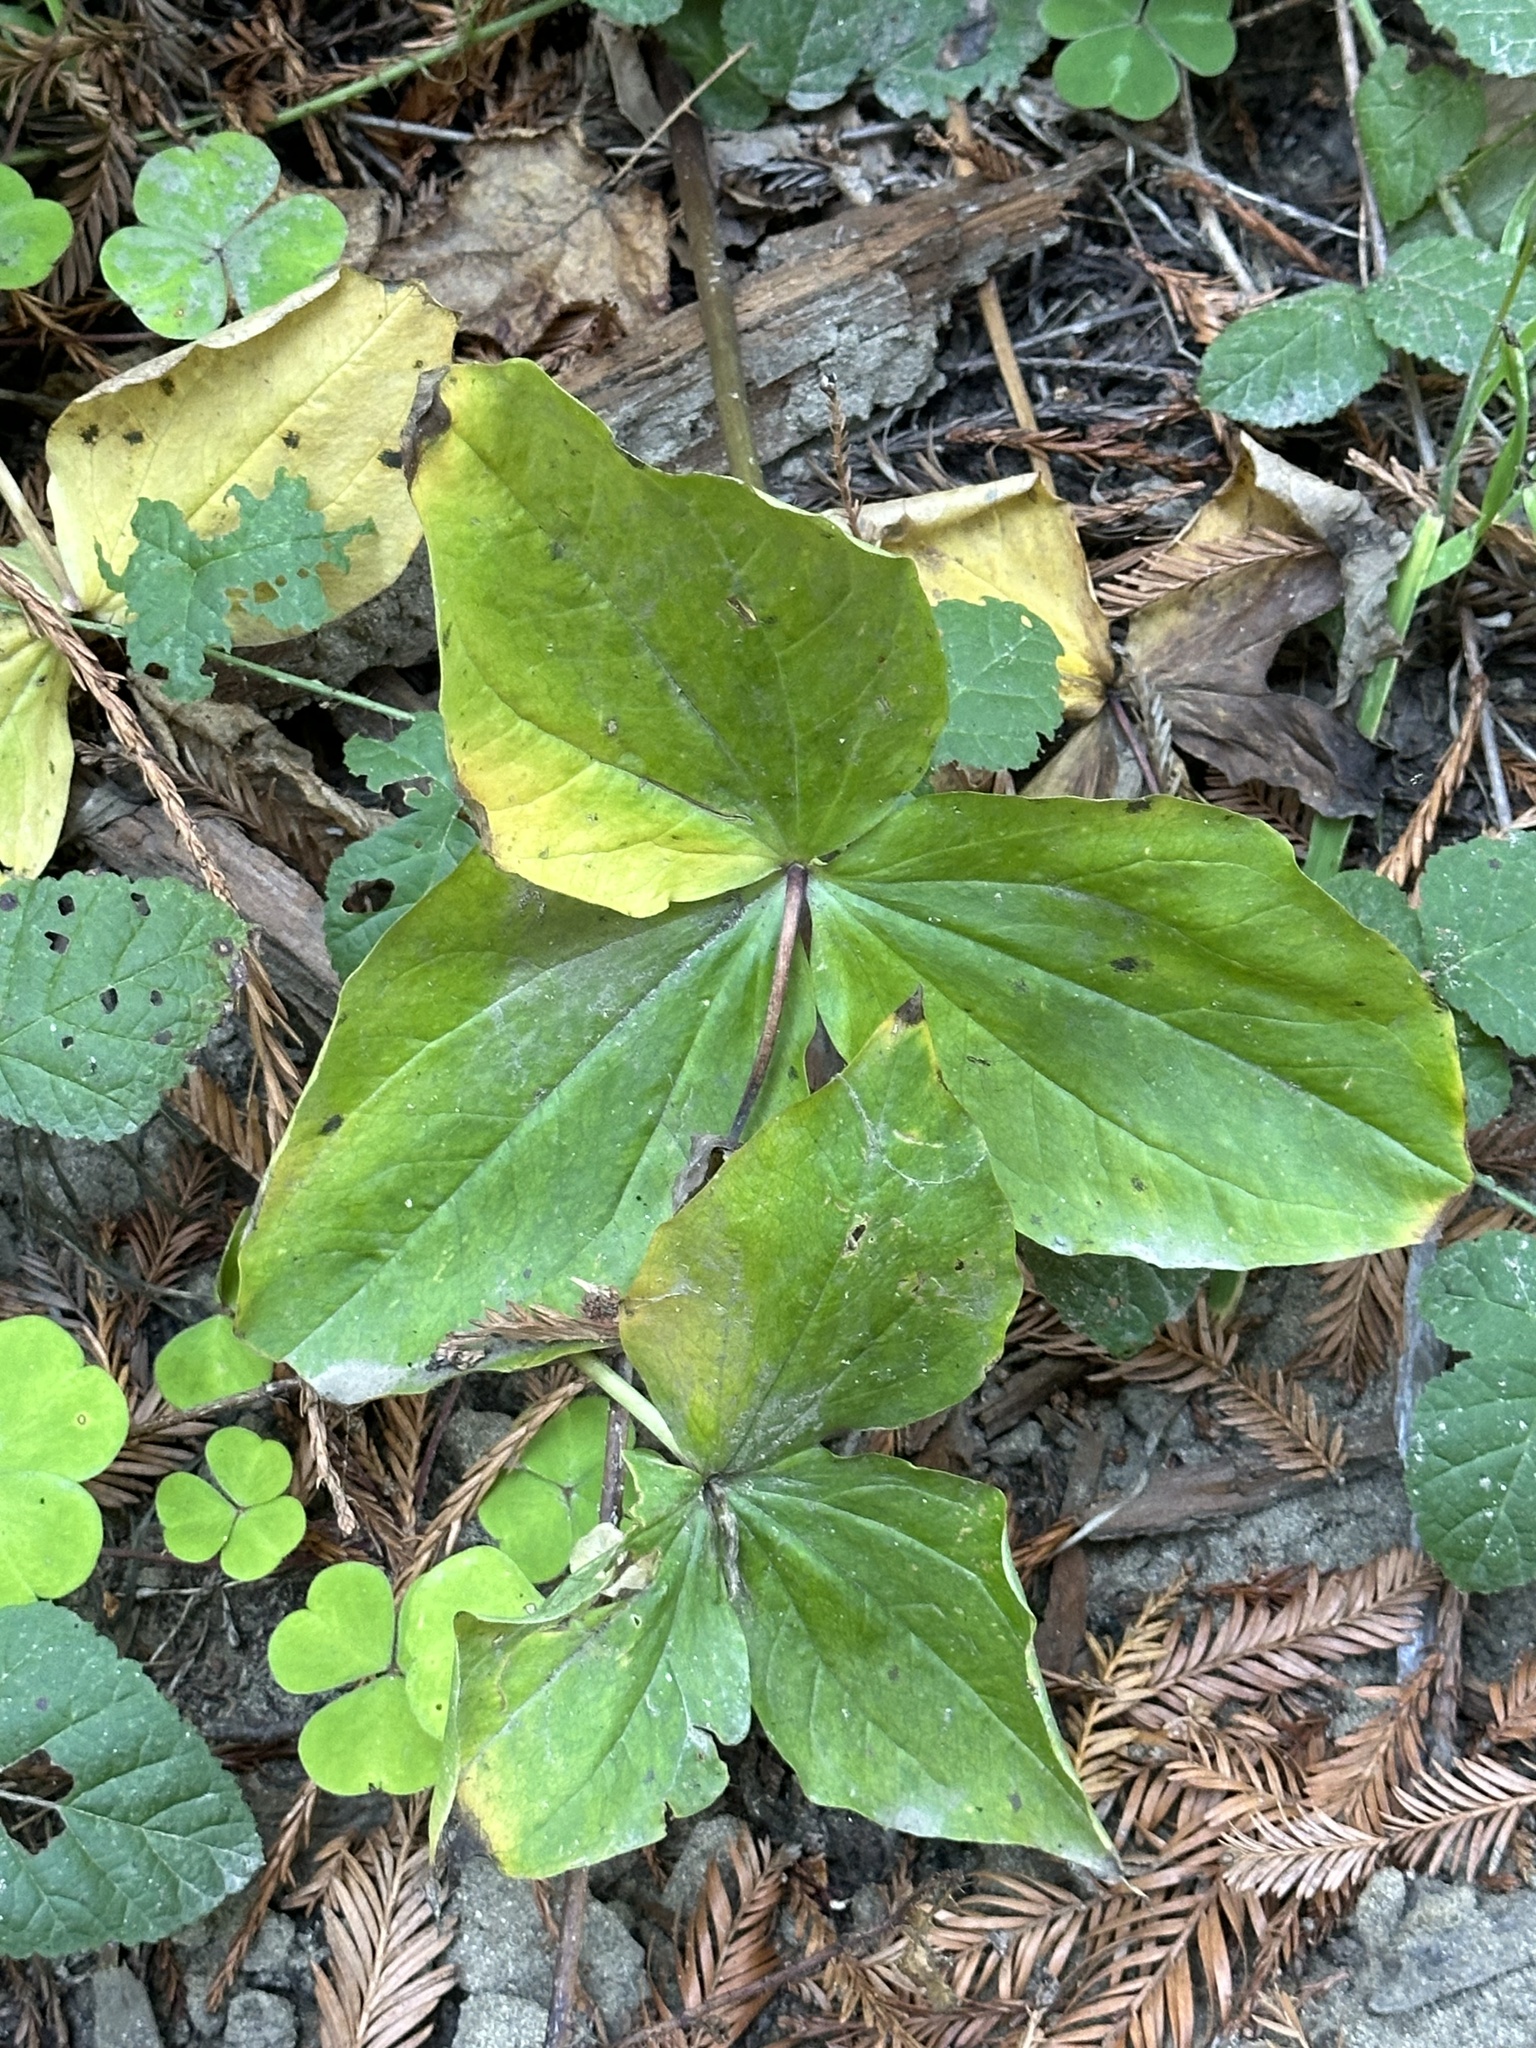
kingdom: Plantae
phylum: Tracheophyta
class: Liliopsida
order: Liliales
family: Melanthiaceae
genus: Trillium
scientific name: Trillium ovatum
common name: Pacific trillium
